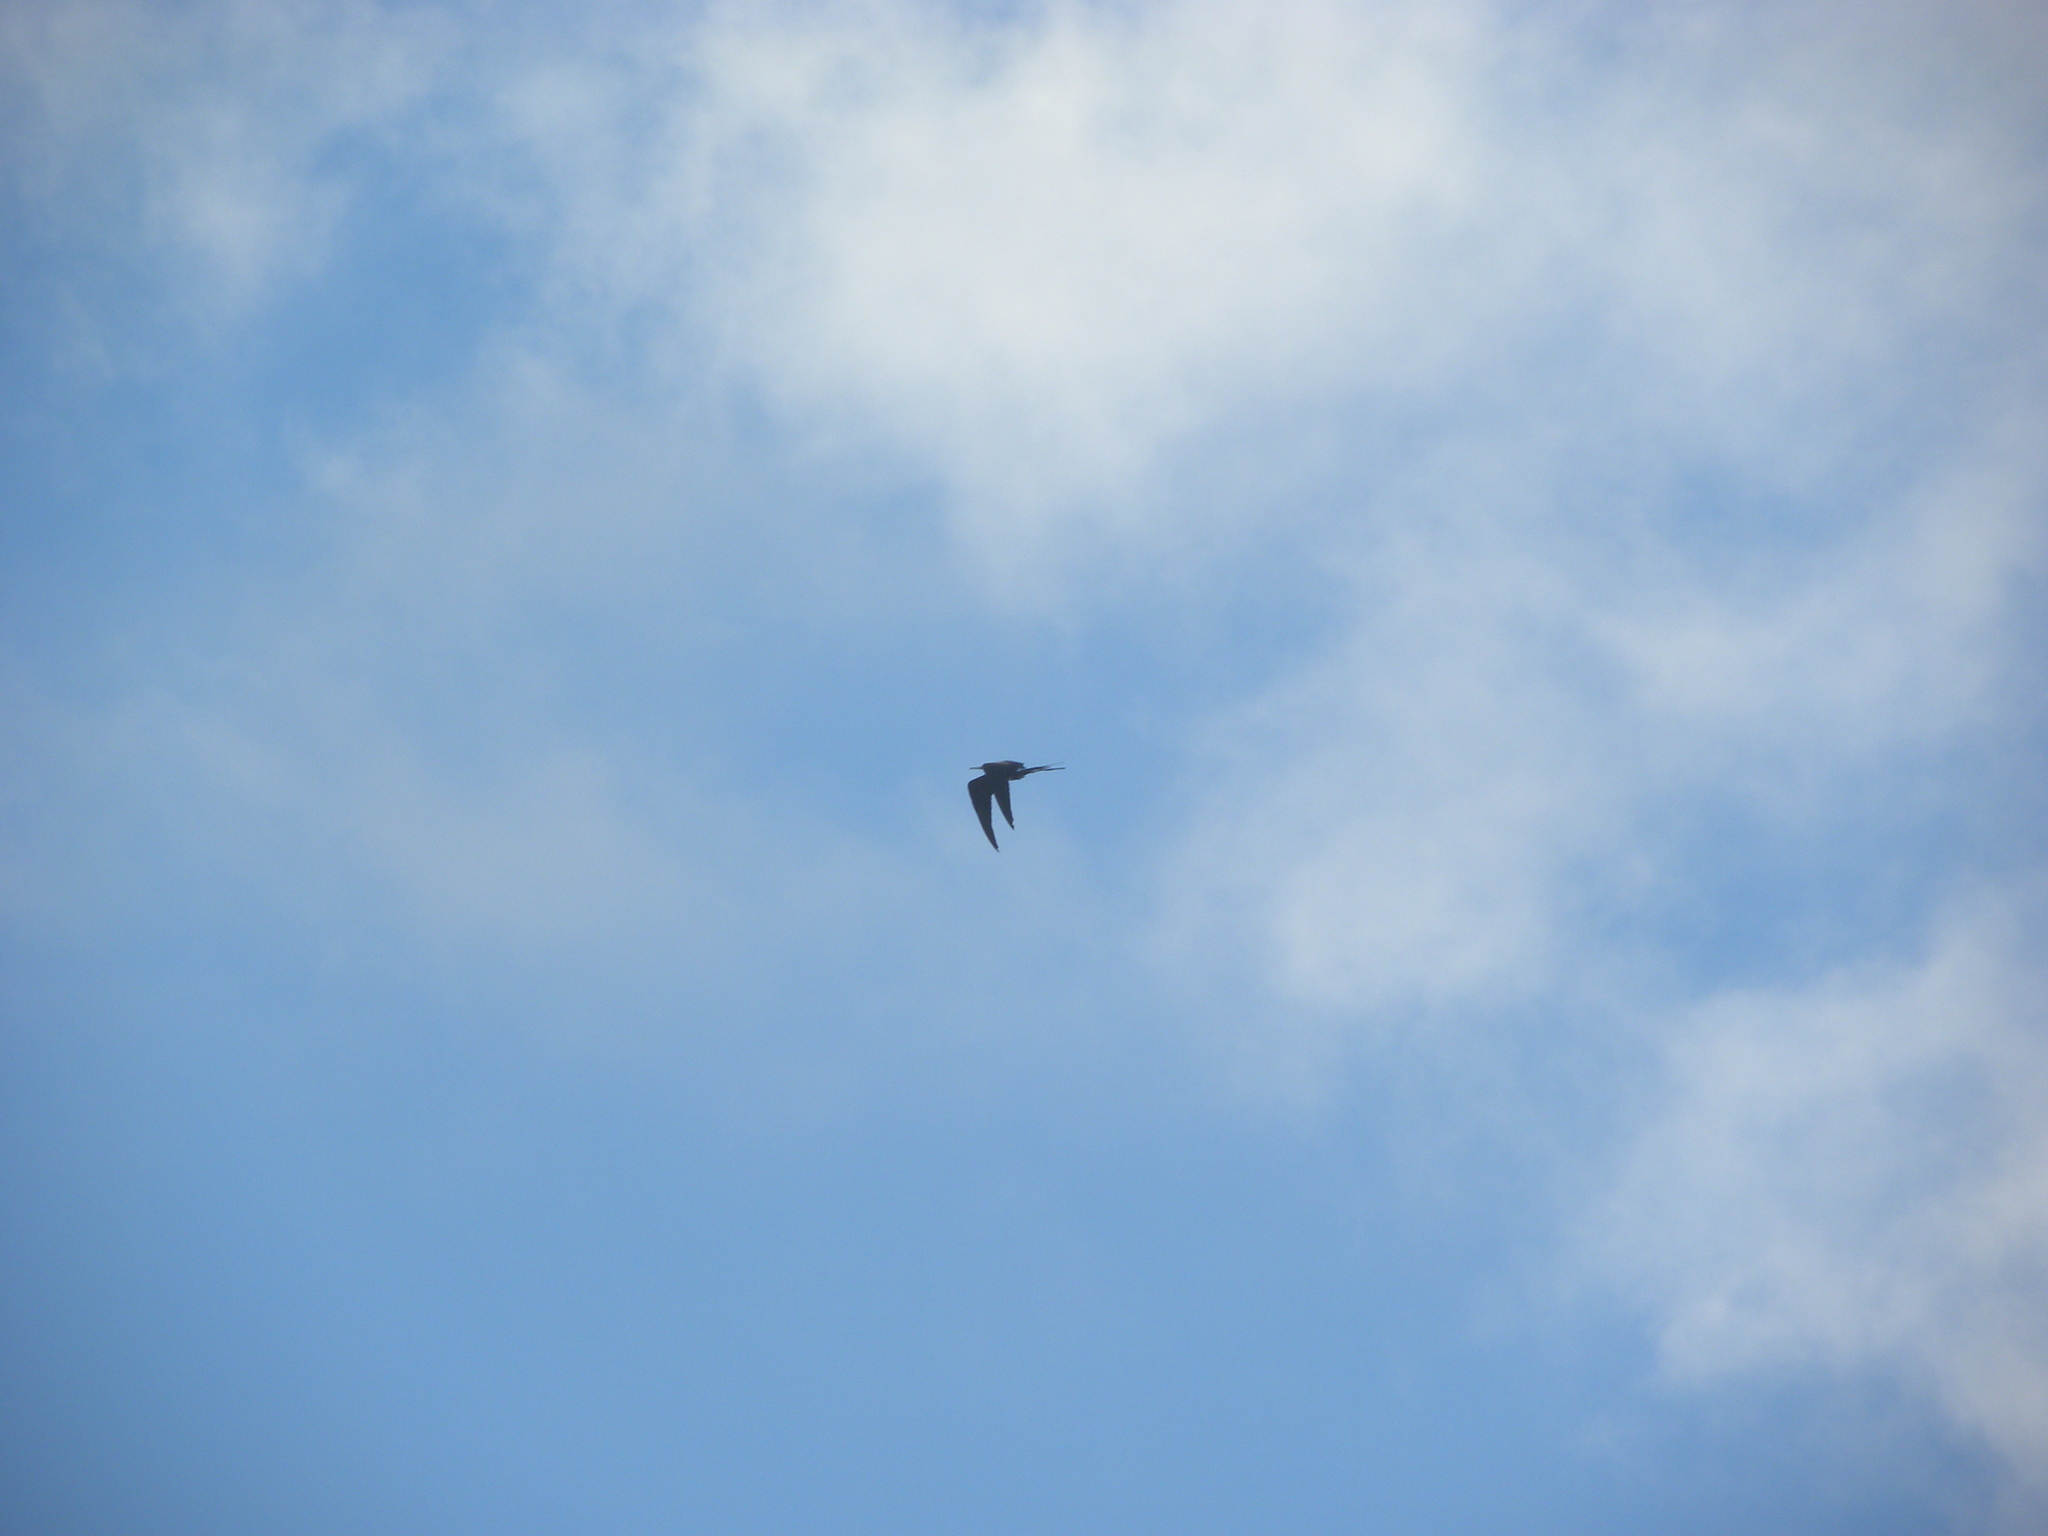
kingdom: Animalia
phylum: Chordata
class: Aves
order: Suliformes
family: Fregatidae
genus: Fregata
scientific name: Fregata magnificens
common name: Magnificent frigatebird
